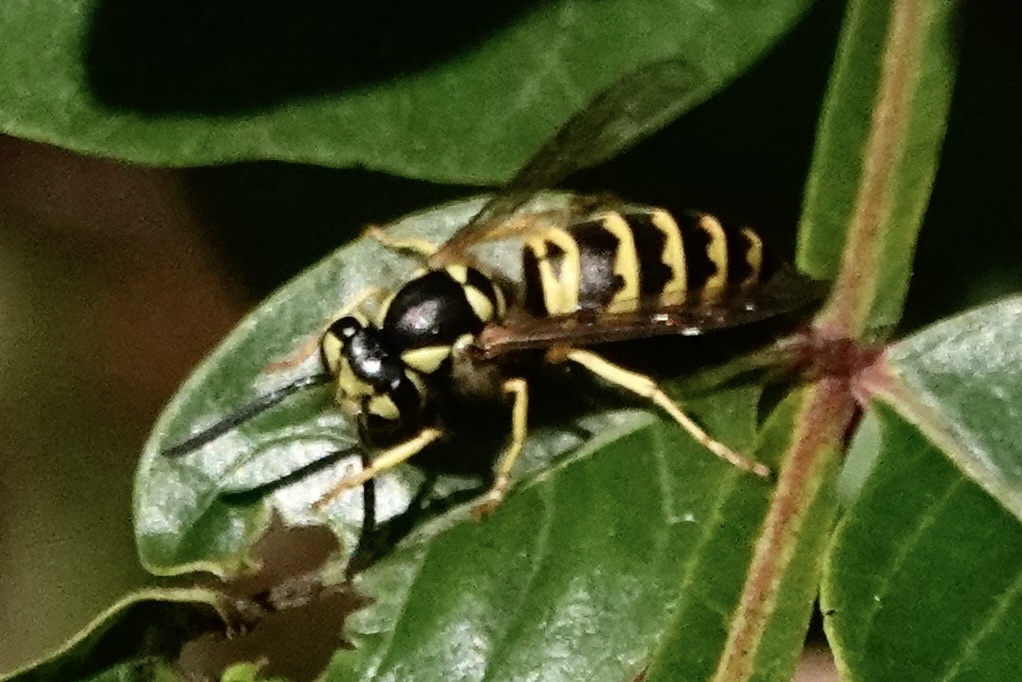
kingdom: Animalia
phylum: Arthropoda
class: Insecta
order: Hymenoptera
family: Vespidae
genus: Vespula
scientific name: Vespula maculifrons
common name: Eastern yellowjacket
